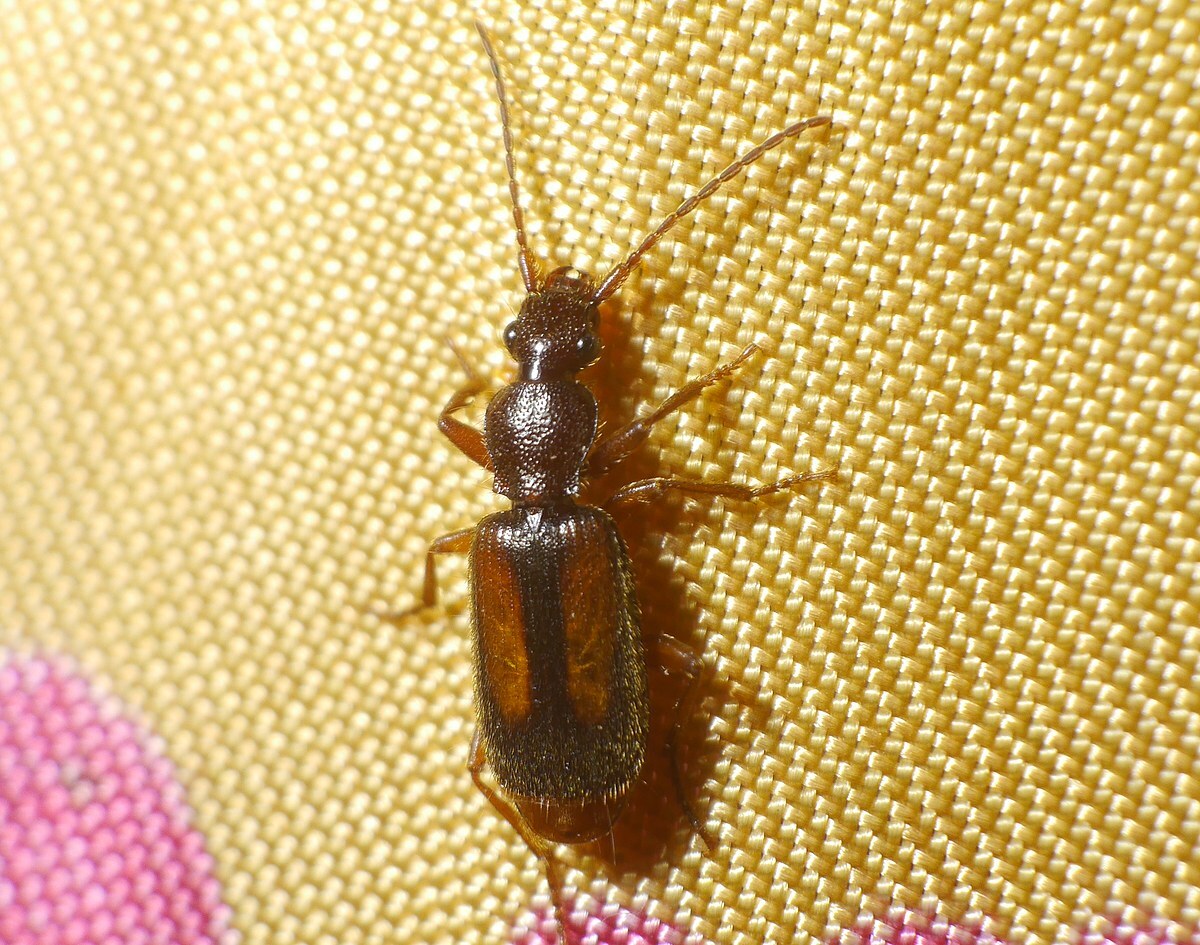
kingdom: Animalia
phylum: Arthropoda
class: Insecta
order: Coleoptera
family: Carabidae
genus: Polistichus
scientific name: Polistichus connexus
